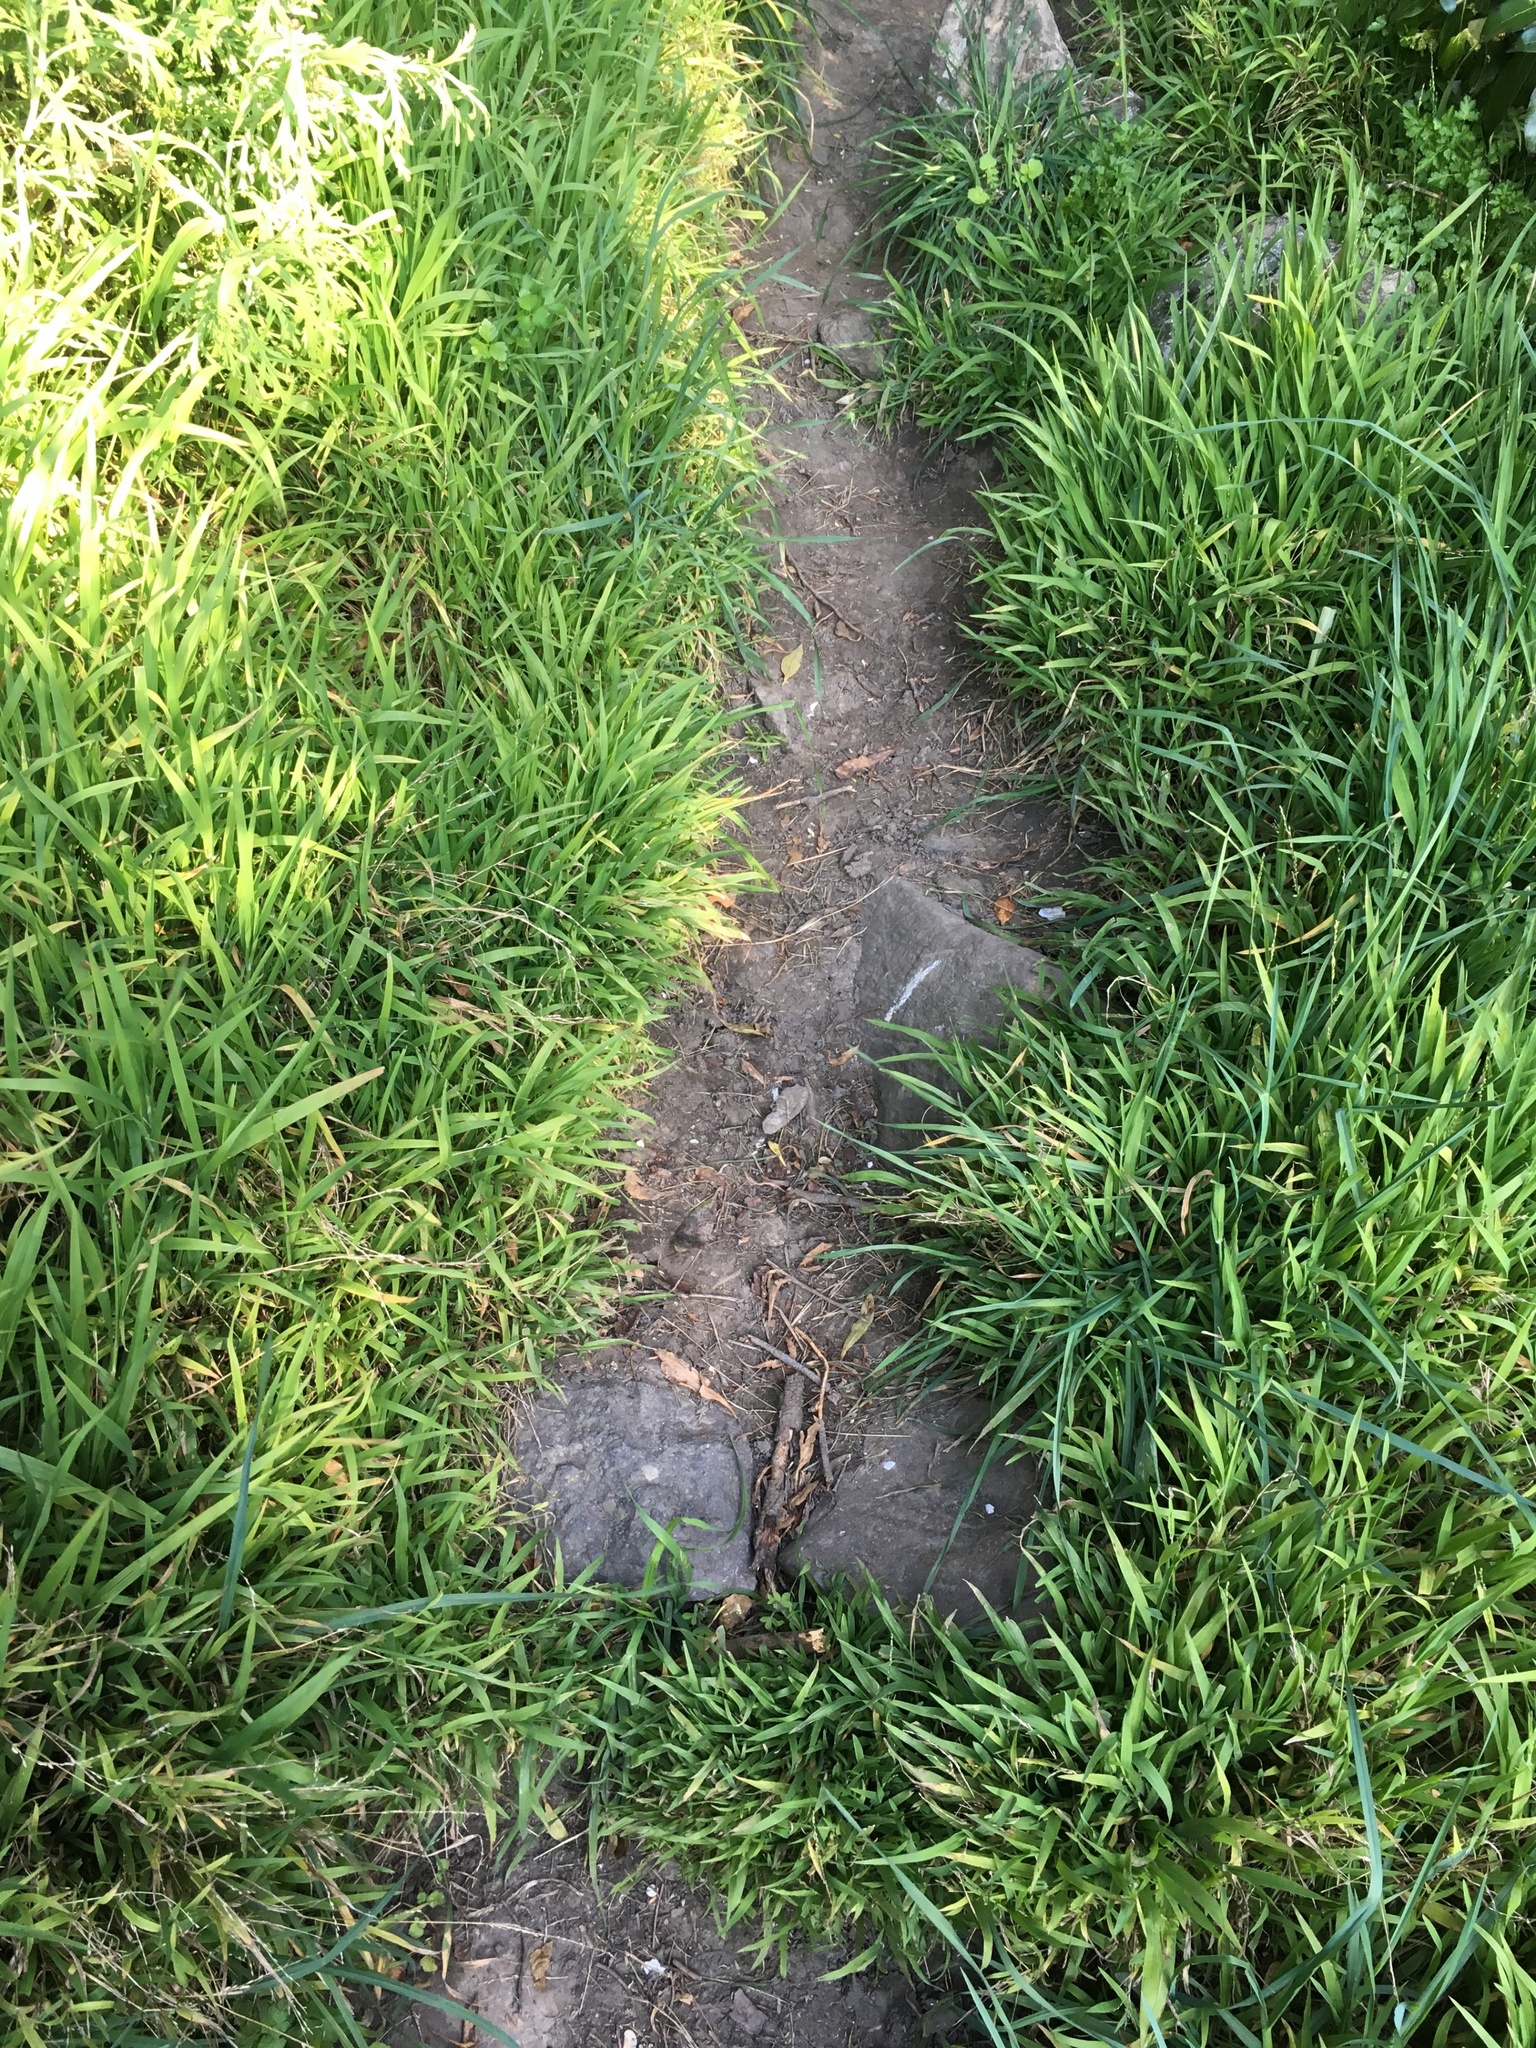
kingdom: Plantae
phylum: Tracheophyta
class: Liliopsida
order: Poales
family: Poaceae
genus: Ehrharta
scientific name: Ehrharta erecta
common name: Panic veldtgrass
